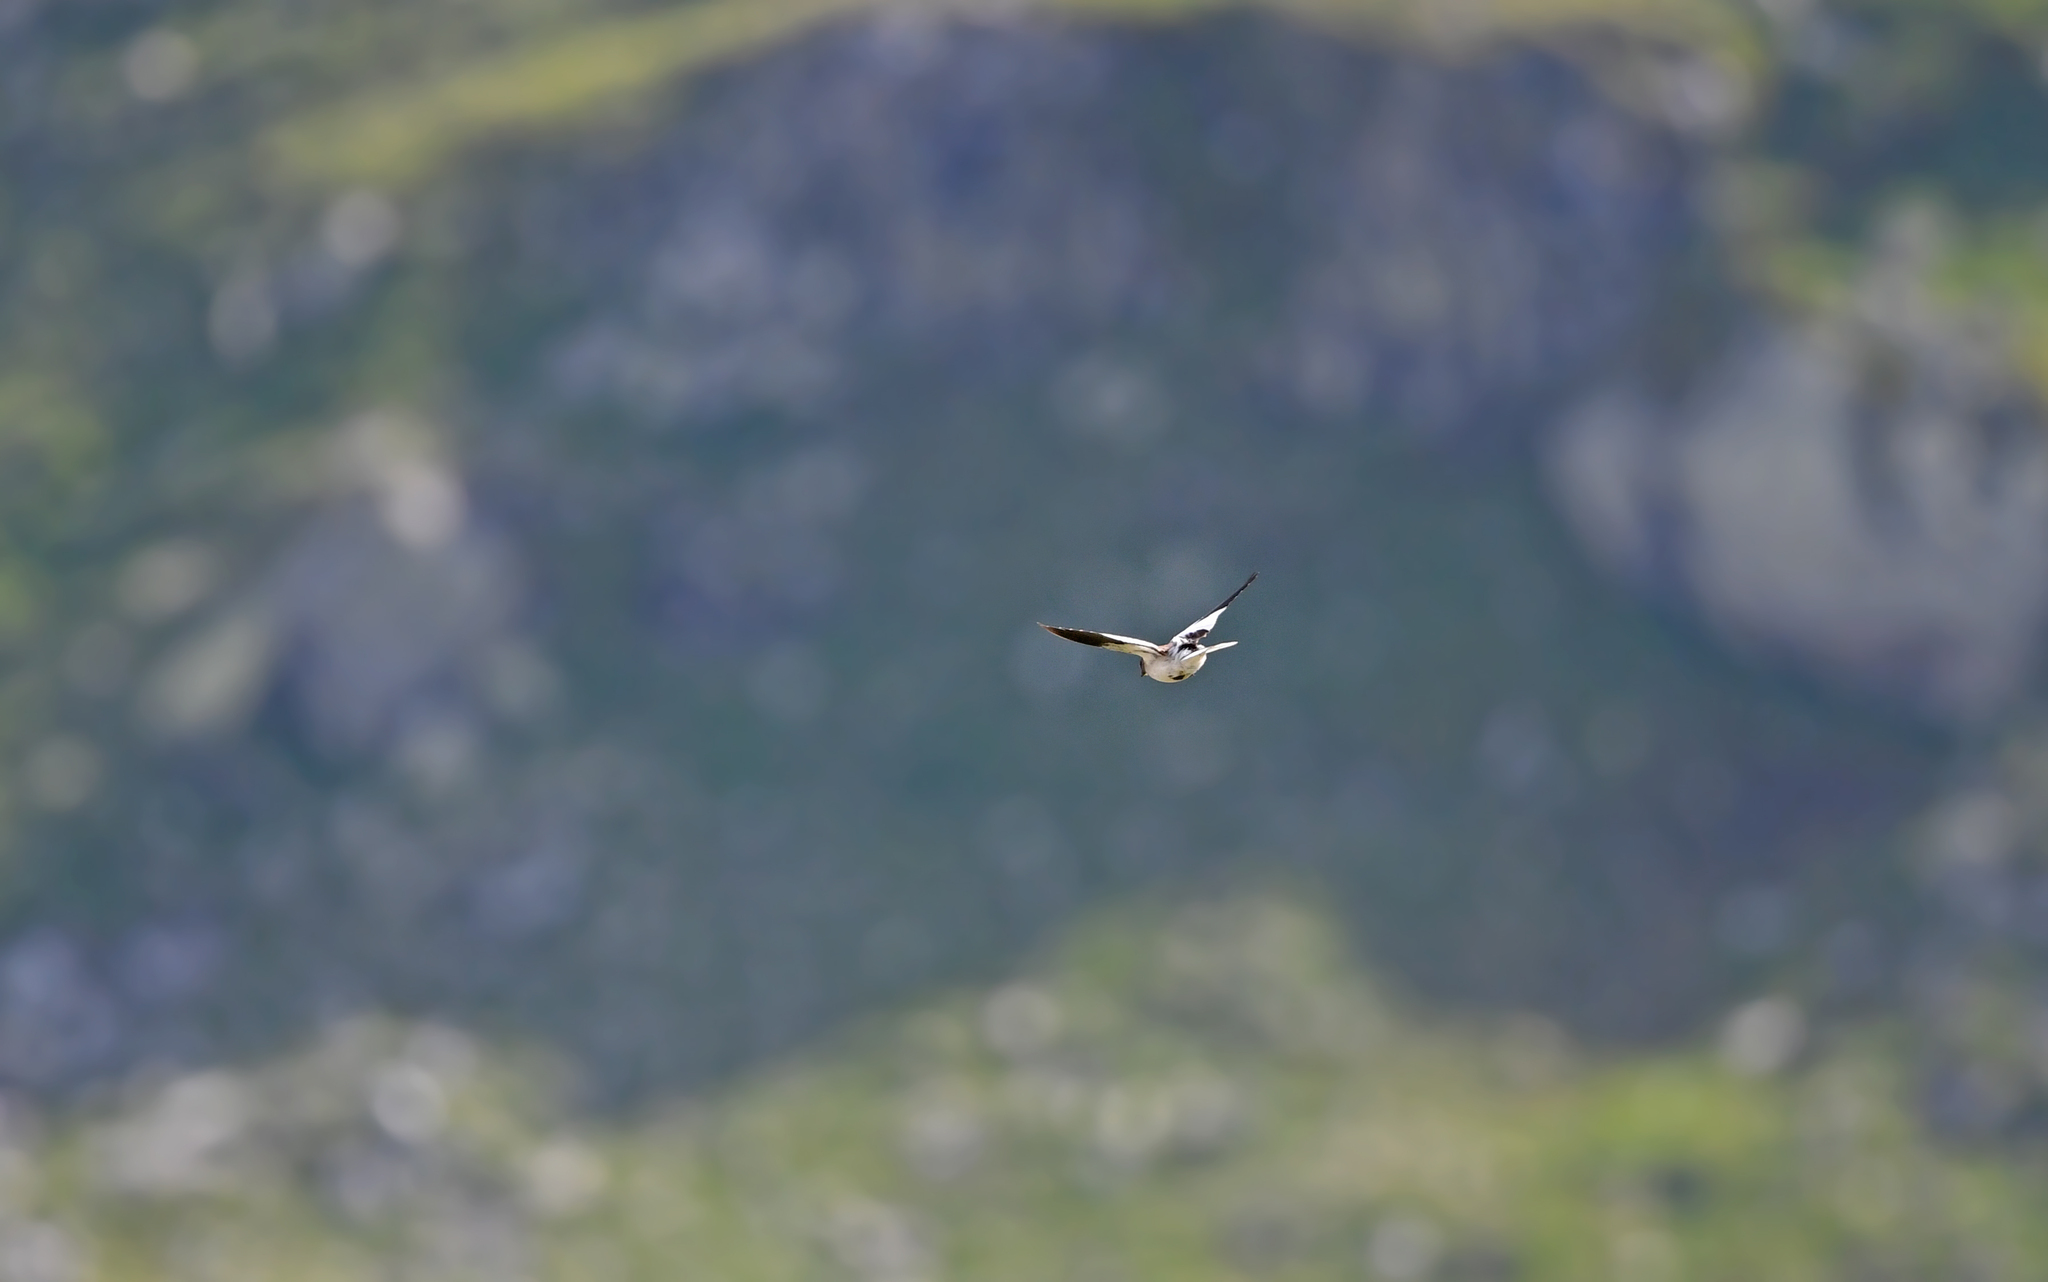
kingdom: Animalia
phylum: Chordata
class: Aves
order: Passeriformes
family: Passeridae
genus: Montifringilla
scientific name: Montifringilla nivalis
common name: White-winged snowfinch
